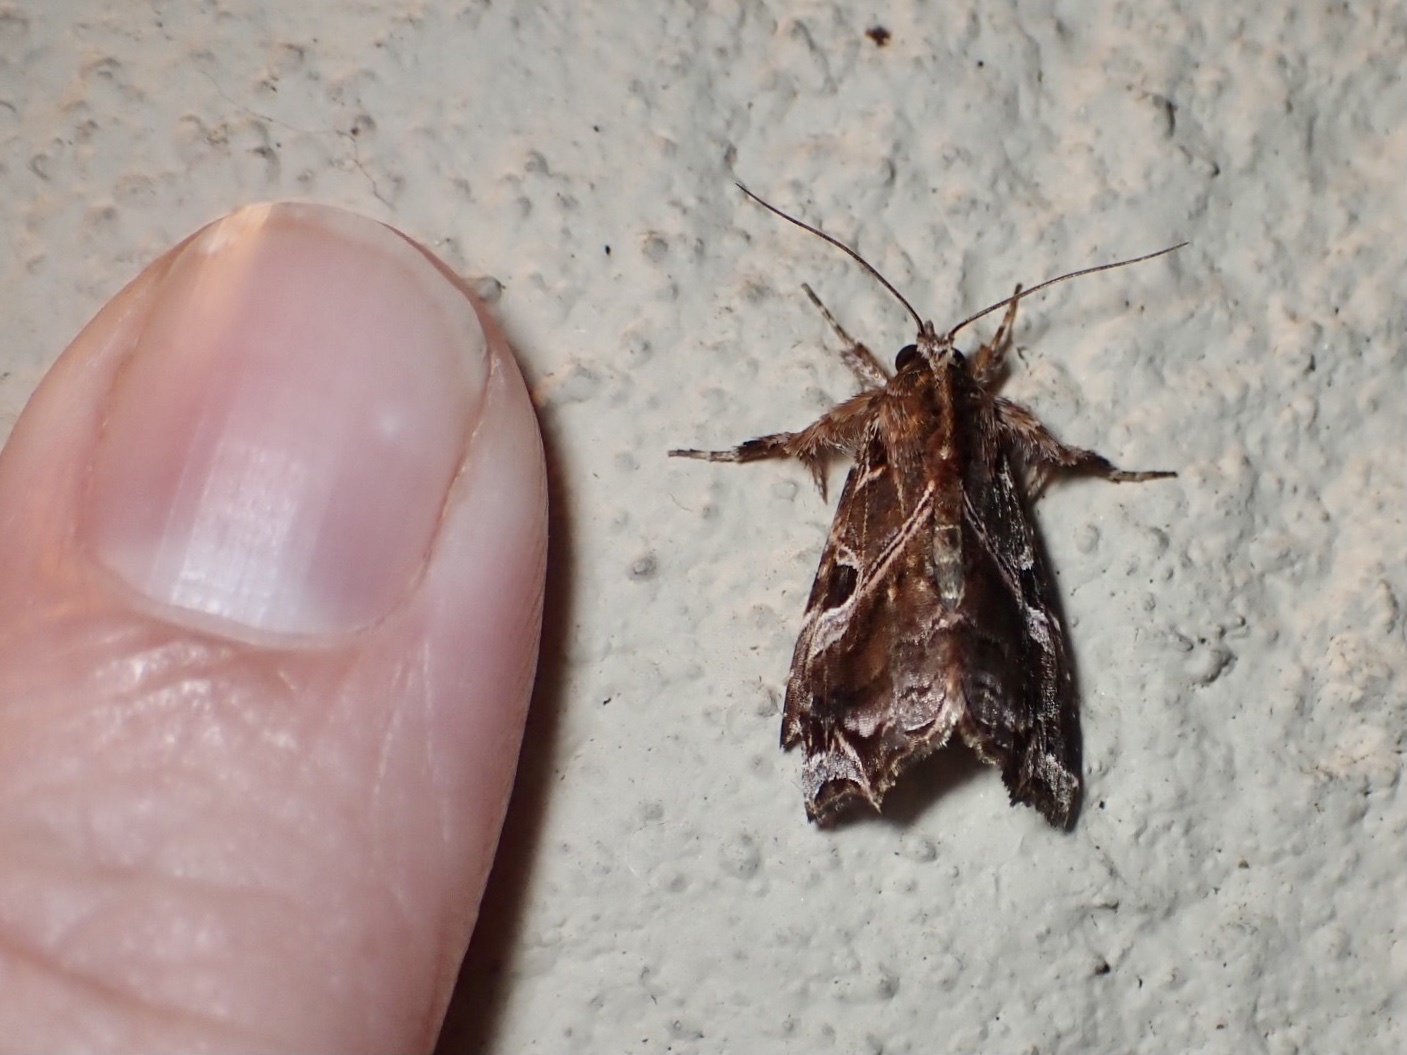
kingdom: Animalia
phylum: Arthropoda
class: Insecta
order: Lepidoptera
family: Noctuidae
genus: Callopistria
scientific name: Callopistria floridensis
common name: Florida fern moth
